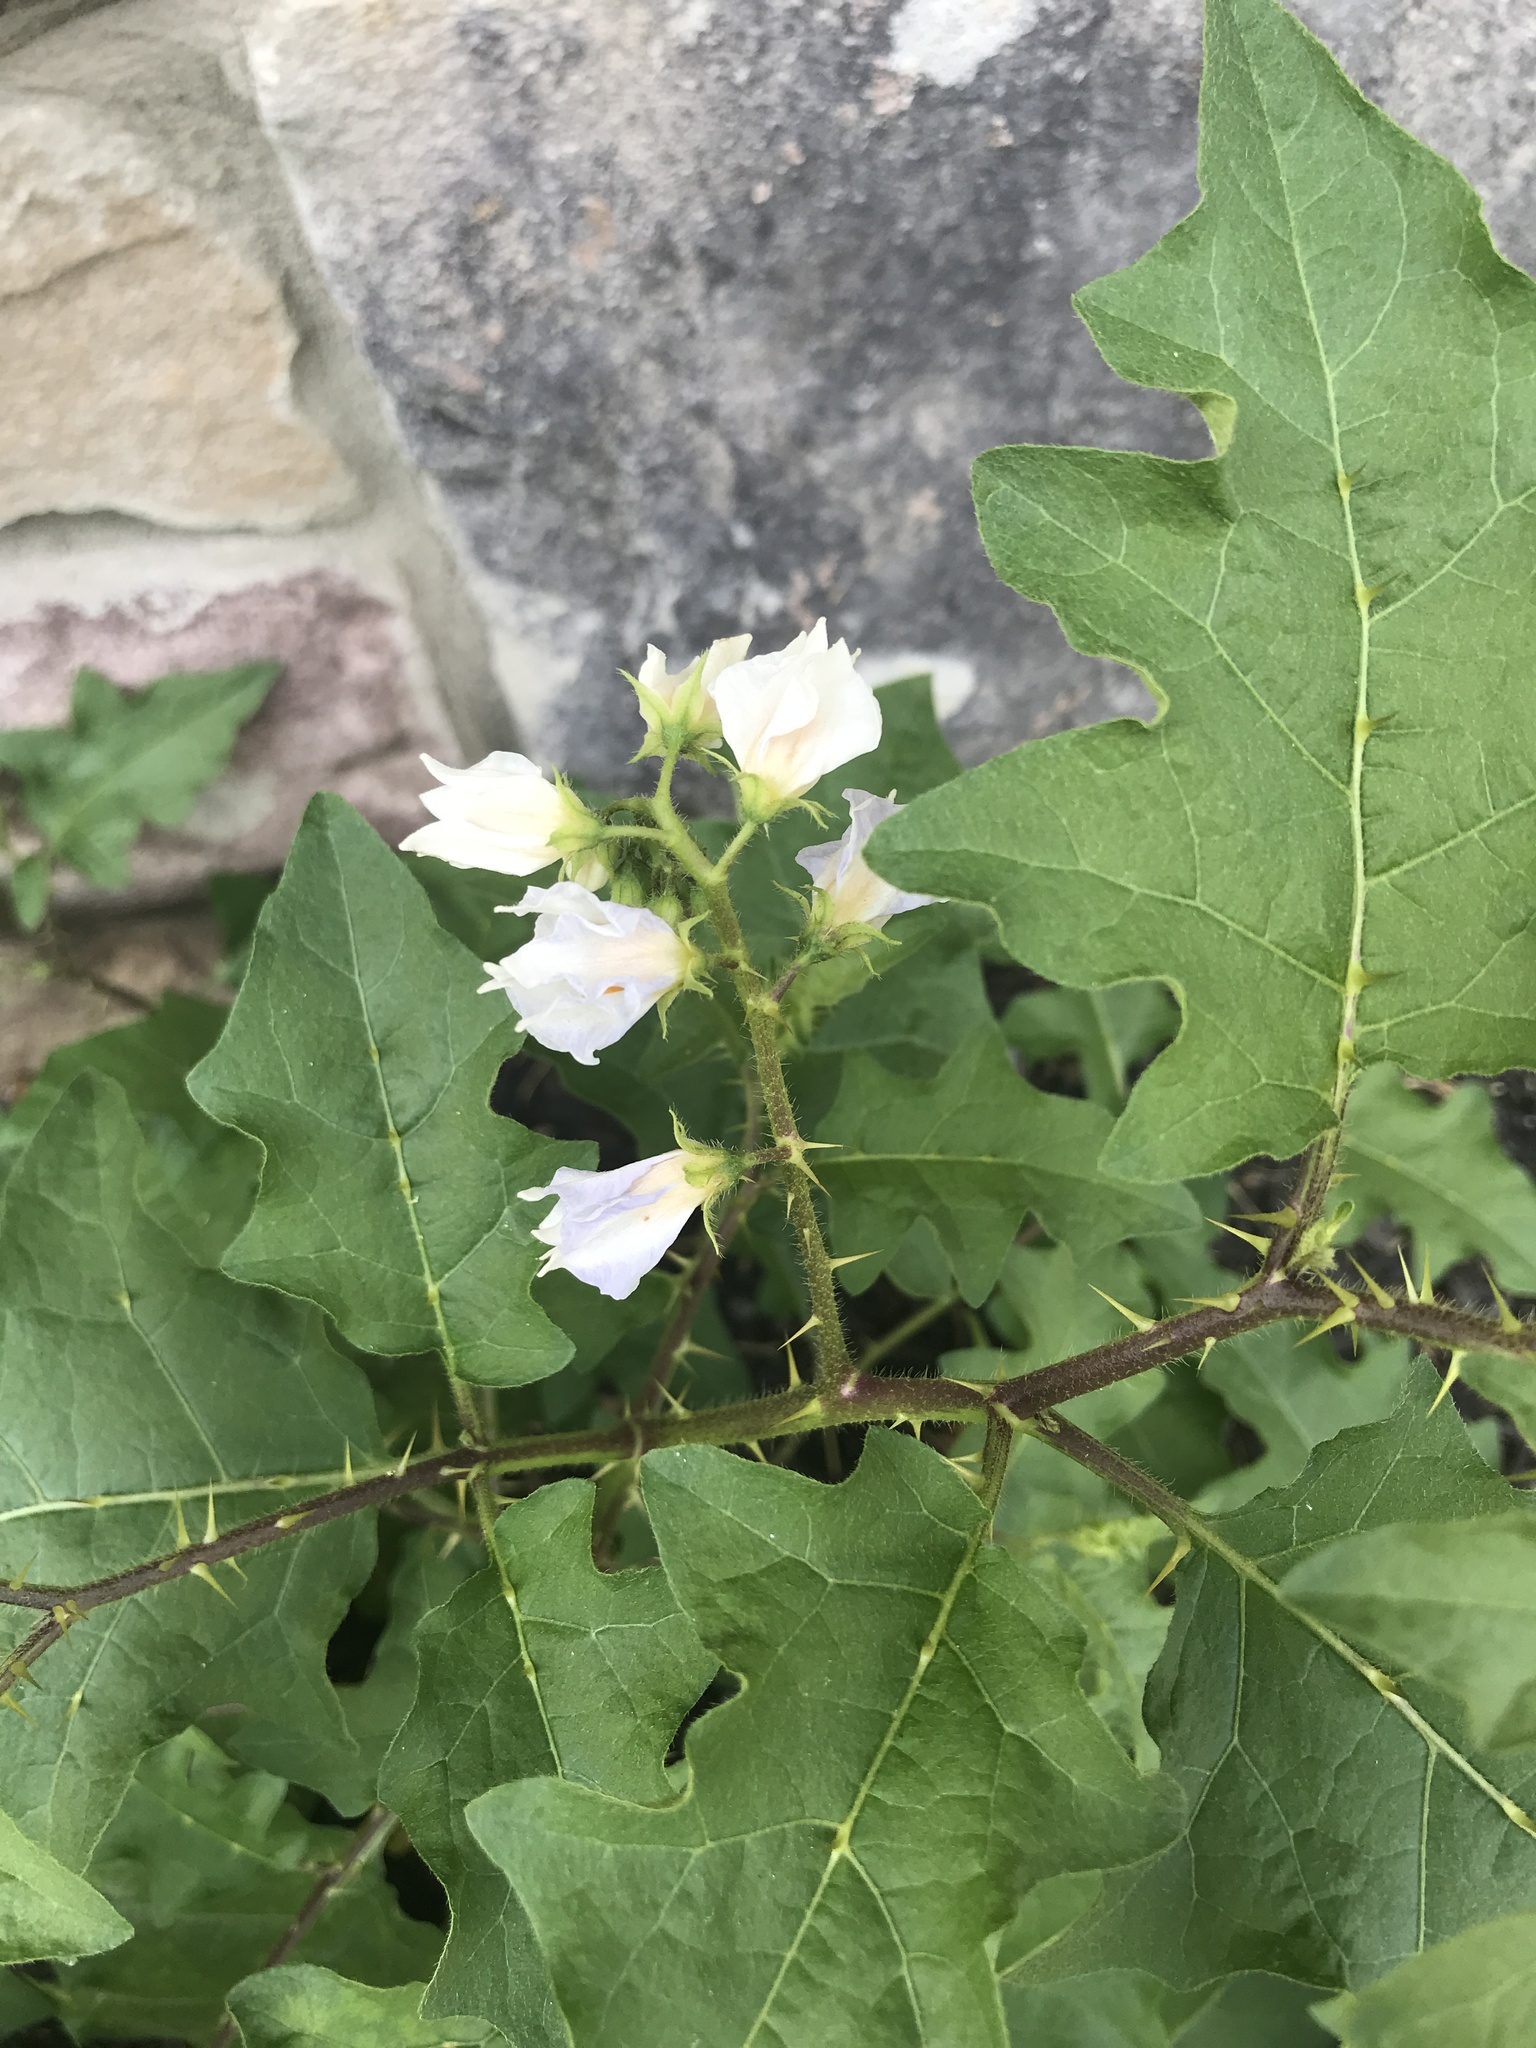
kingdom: Plantae
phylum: Tracheophyta
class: Magnoliopsida
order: Solanales
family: Solanaceae
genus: Solanum
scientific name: Solanum carolinense
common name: Horse-nettle
